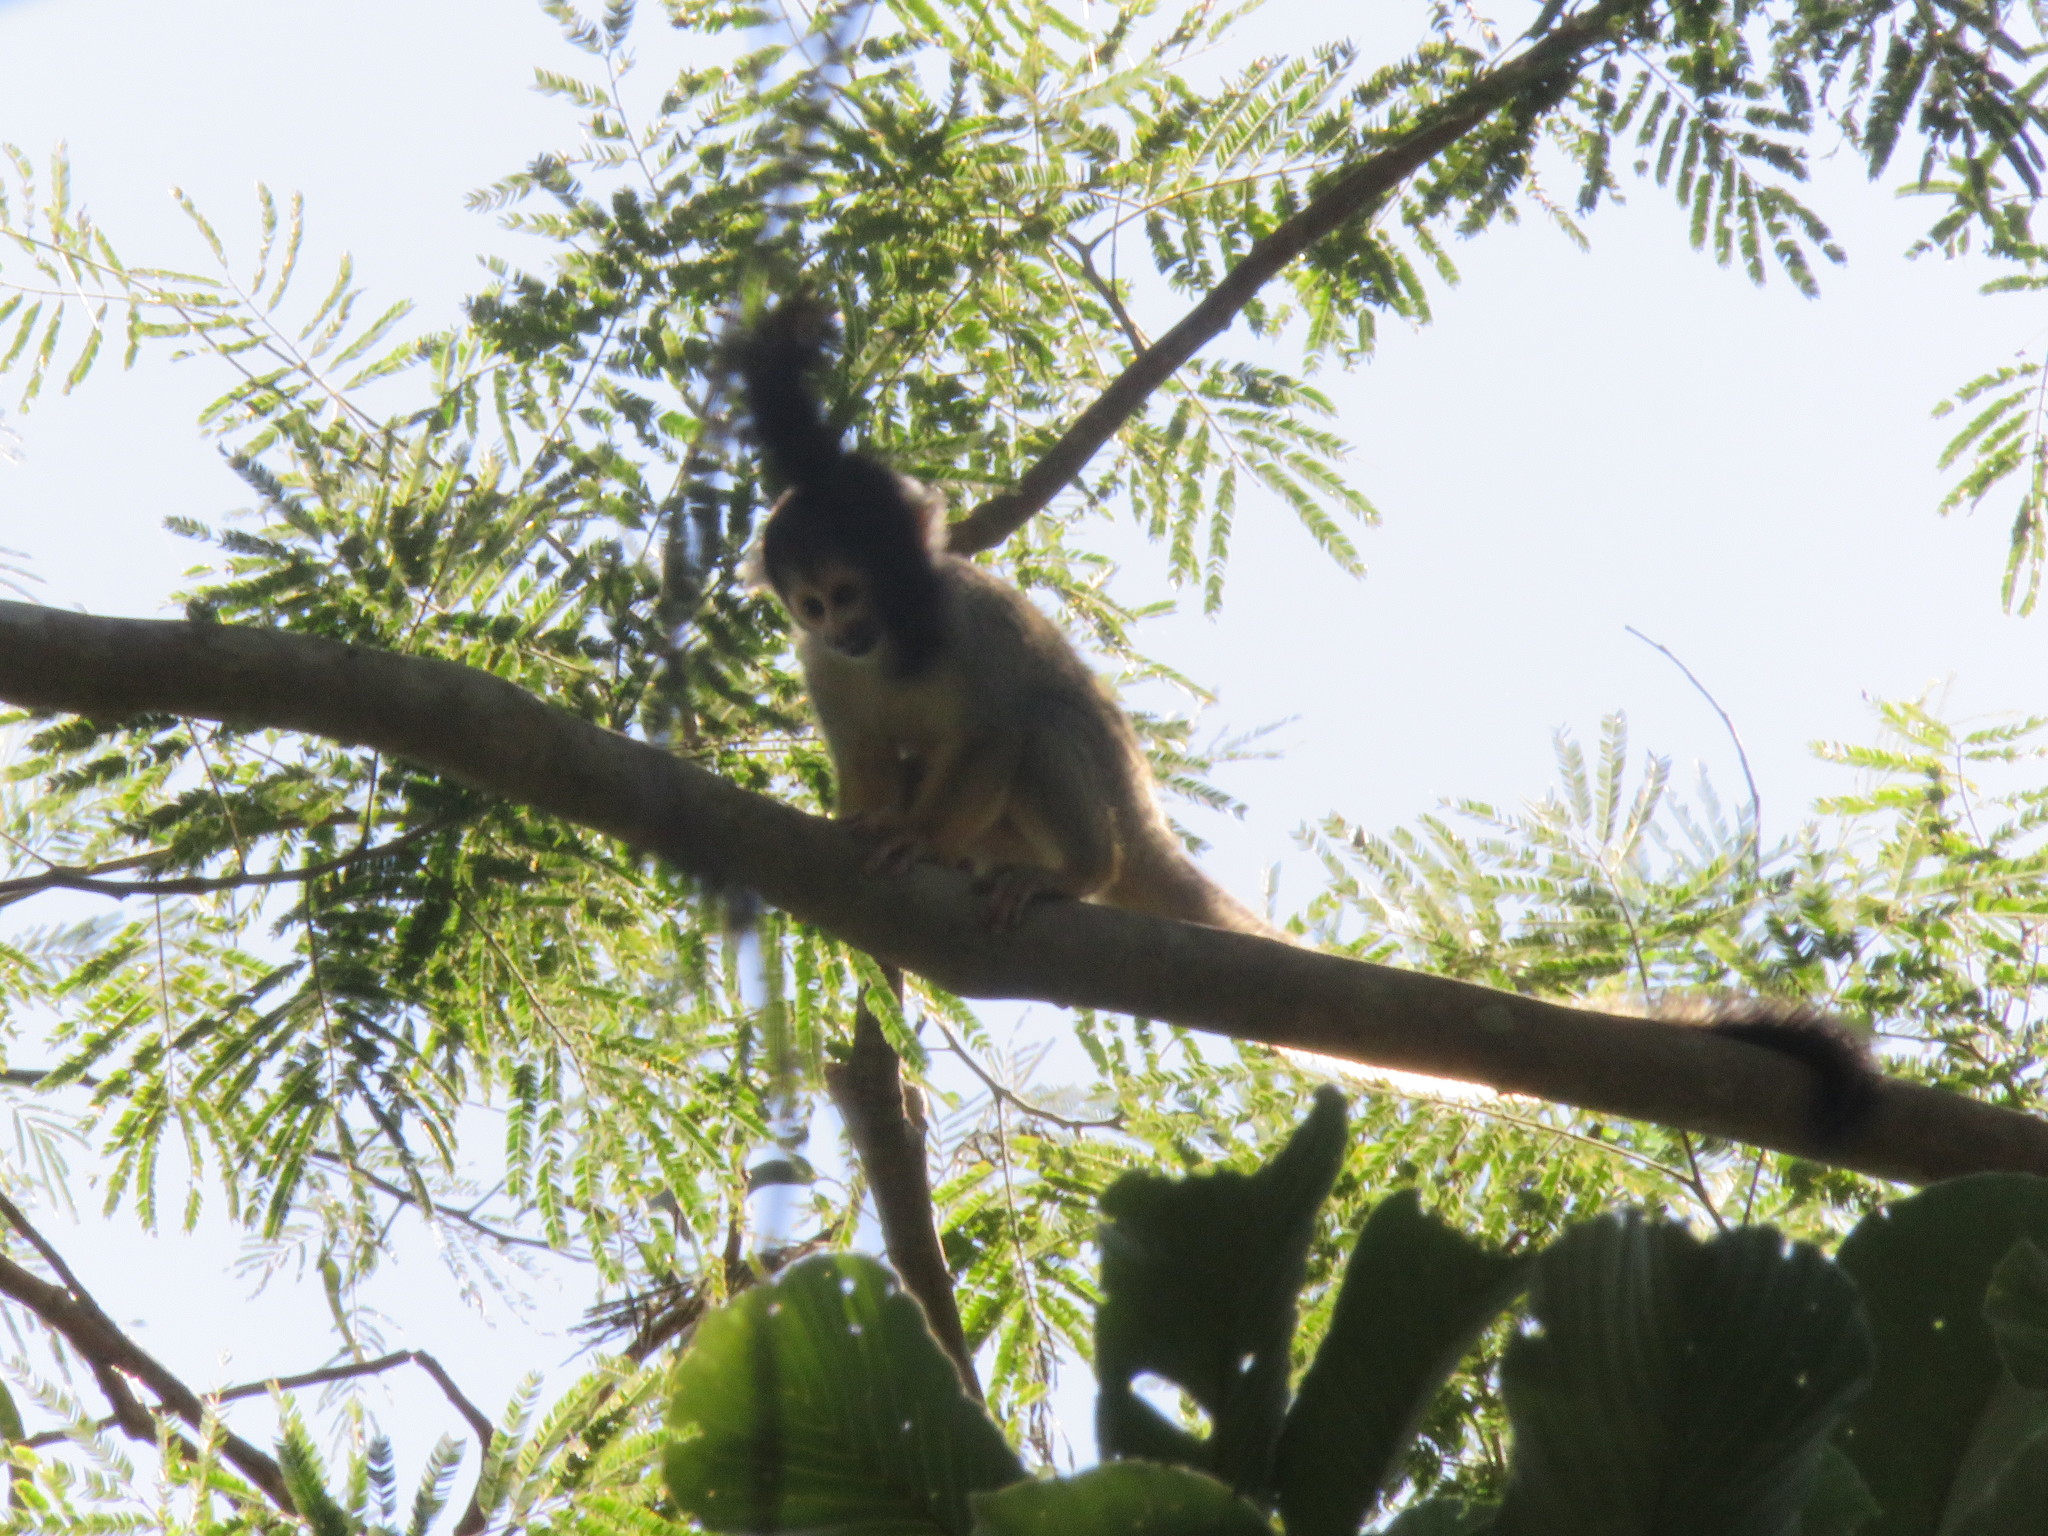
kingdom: Animalia
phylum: Chordata
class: Mammalia
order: Primates
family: Cebidae
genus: Saimiri
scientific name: Saimiri boliviensis
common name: Black-capped squirrel monkey
